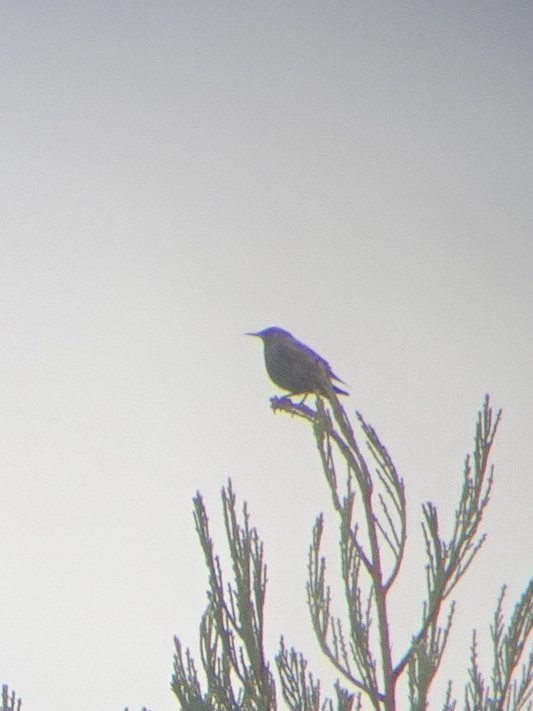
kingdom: Animalia
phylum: Chordata
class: Aves
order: Passeriformes
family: Sturnidae
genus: Sturnus
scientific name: Sturnus vulgaris
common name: Common starling
